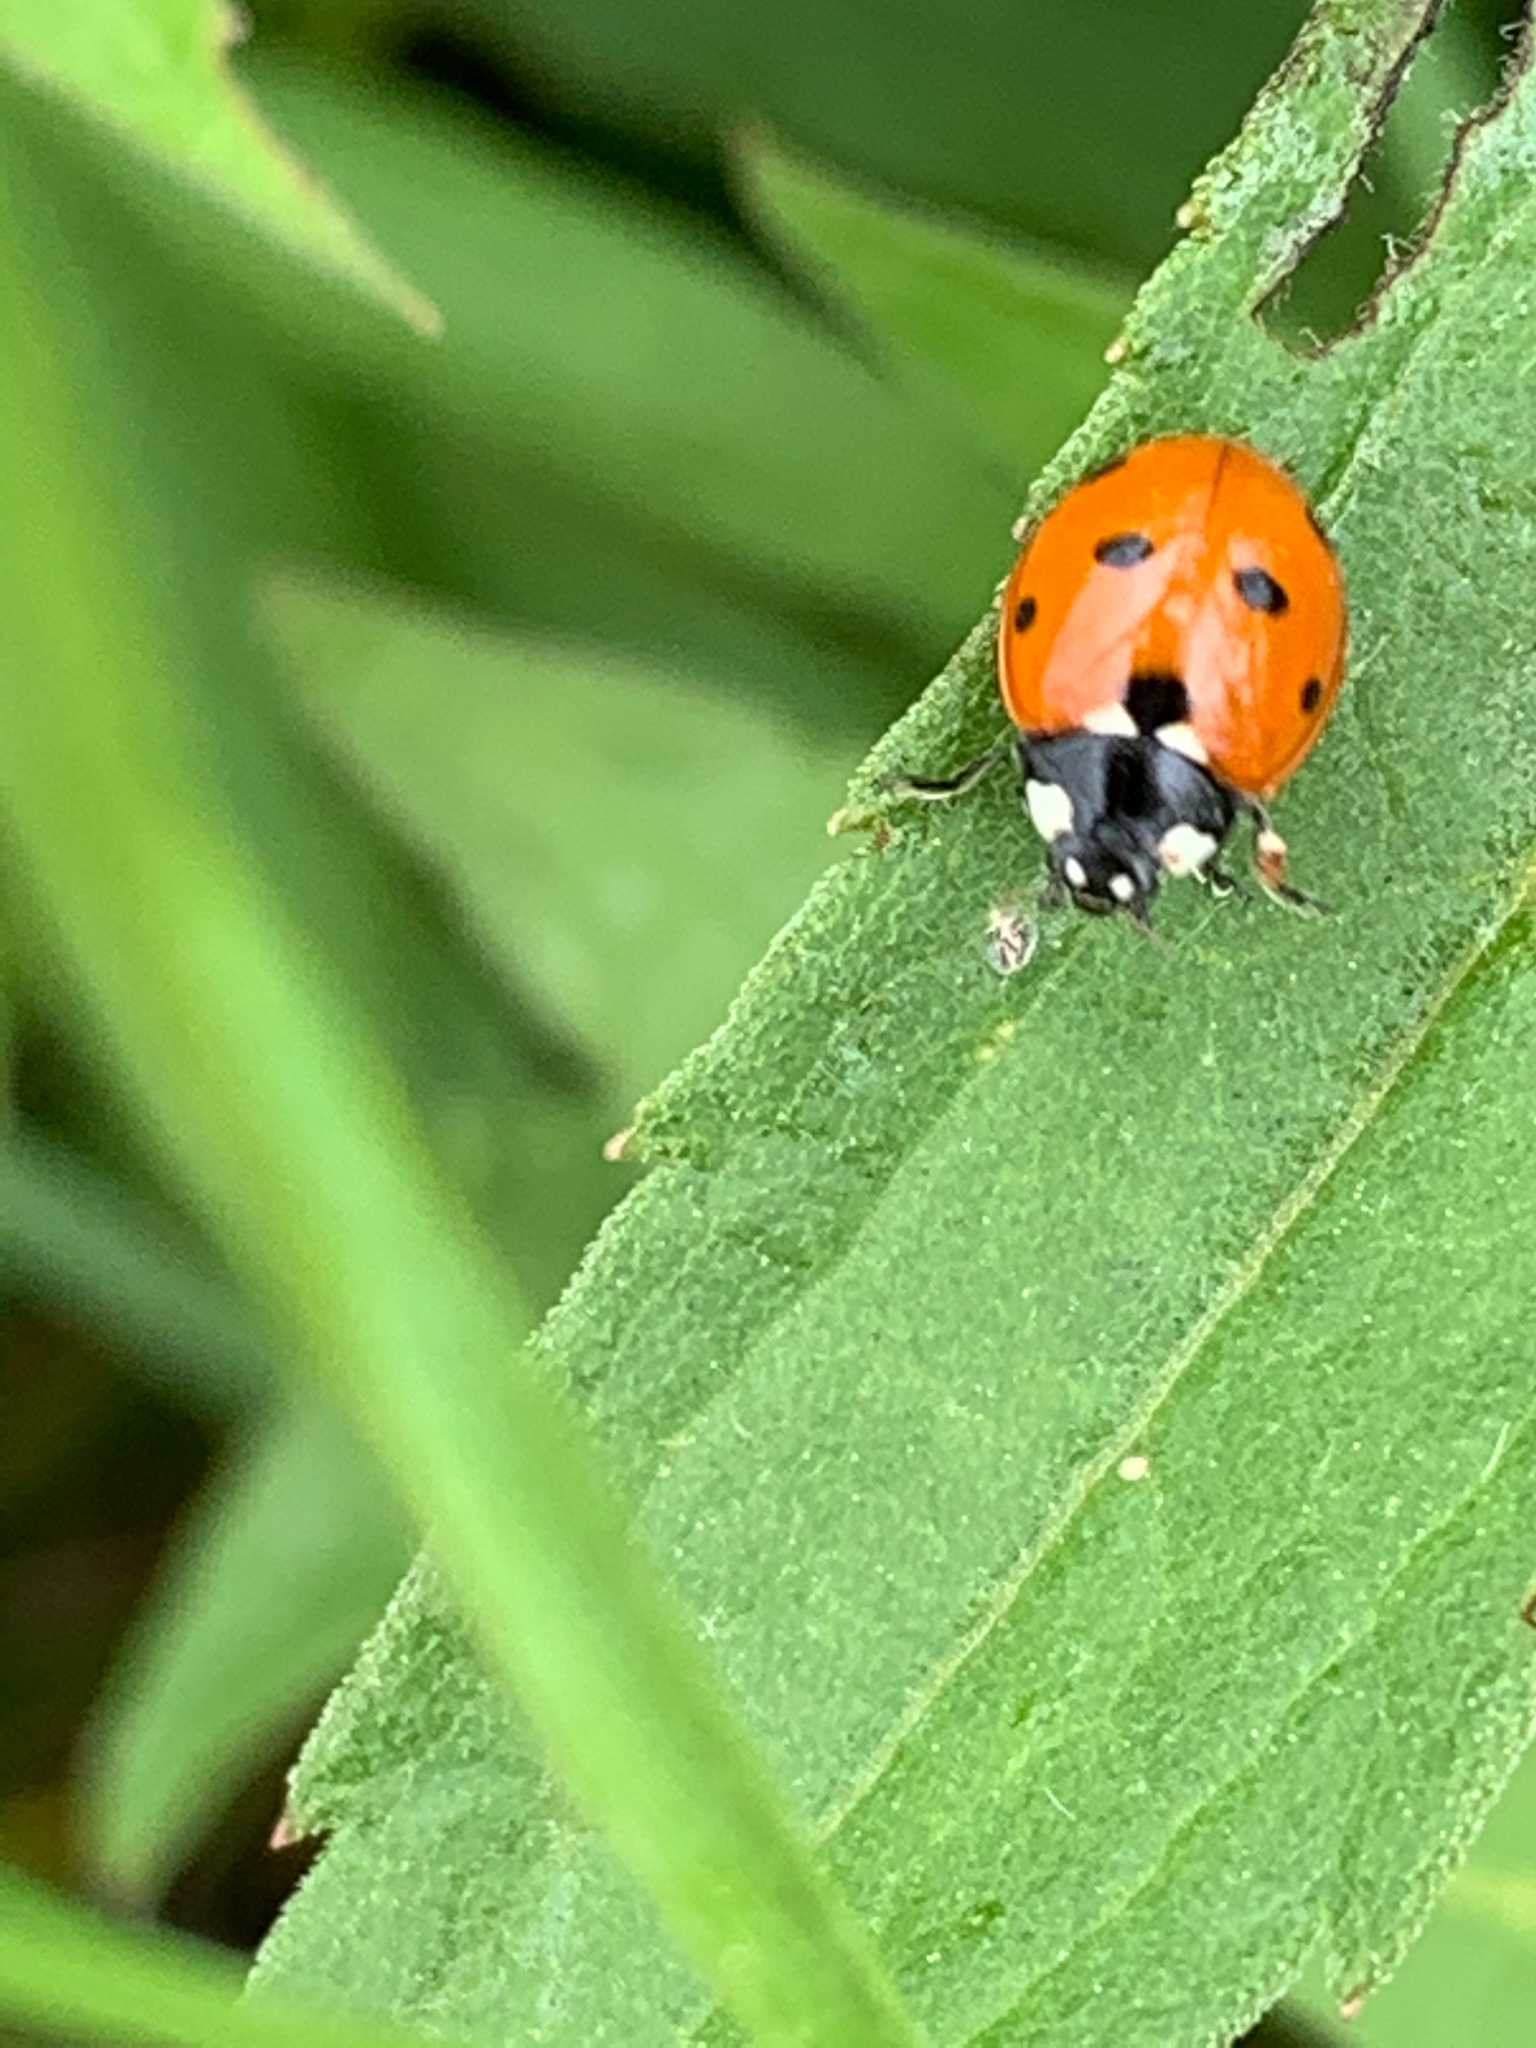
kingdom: Animalia
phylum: Arthropoda
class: Insecta
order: Coleoptera
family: Coccinellidae
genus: Coccinella
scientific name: Coccinella septempunctata
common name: Sevenspotted lady beetle
